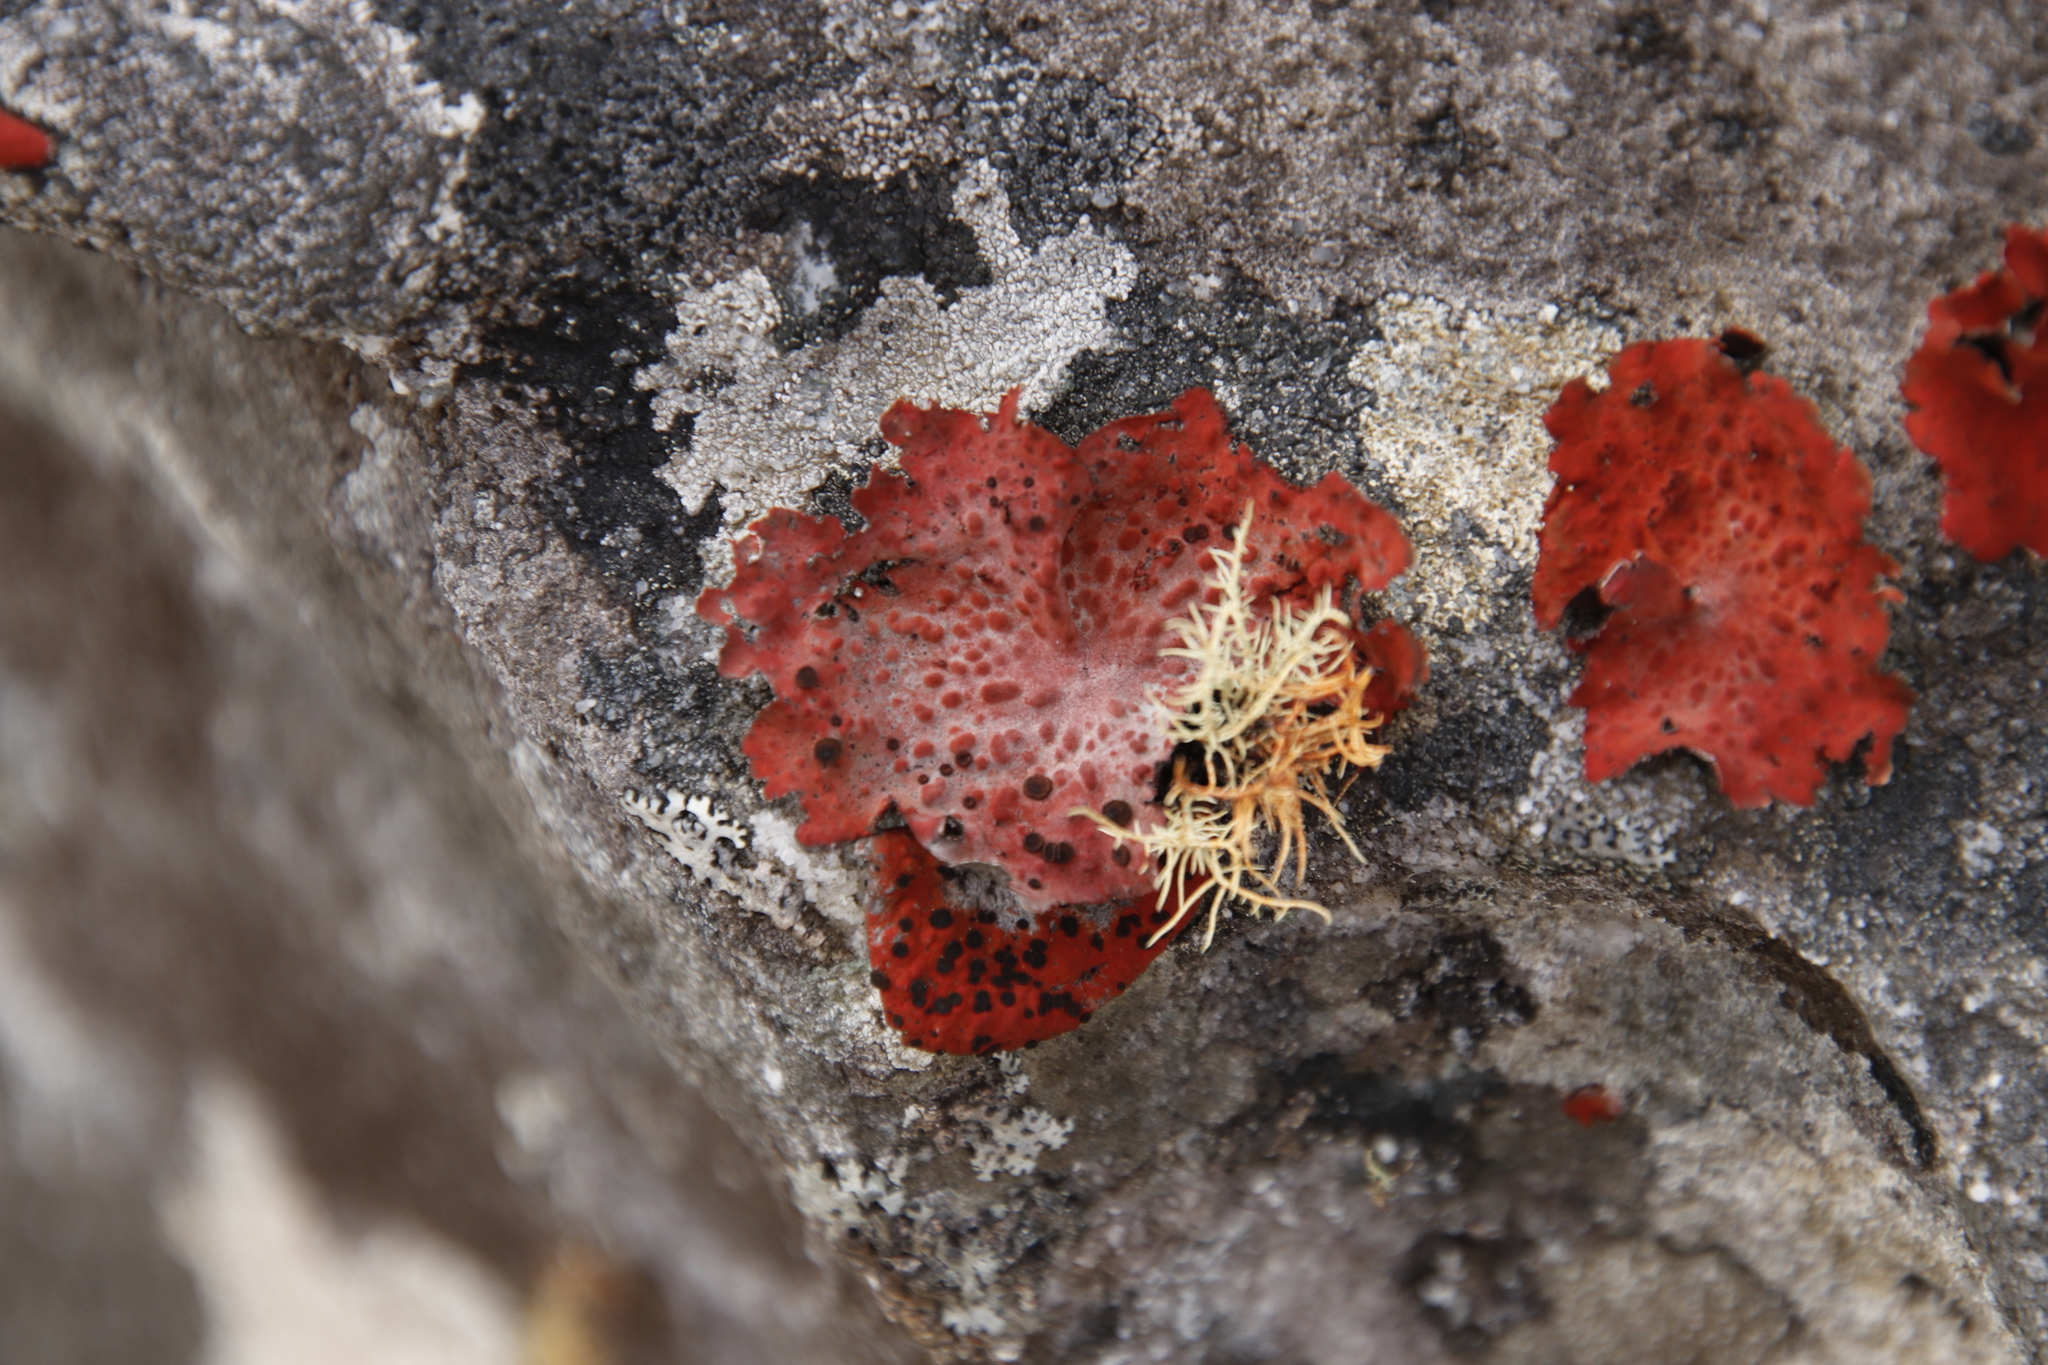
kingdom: Fungi
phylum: Ascomycota
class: Lecanoromycetes
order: Umbilicariales
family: Umbilicariaceae
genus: Lasallia
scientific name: Lasallia rubiginosa
